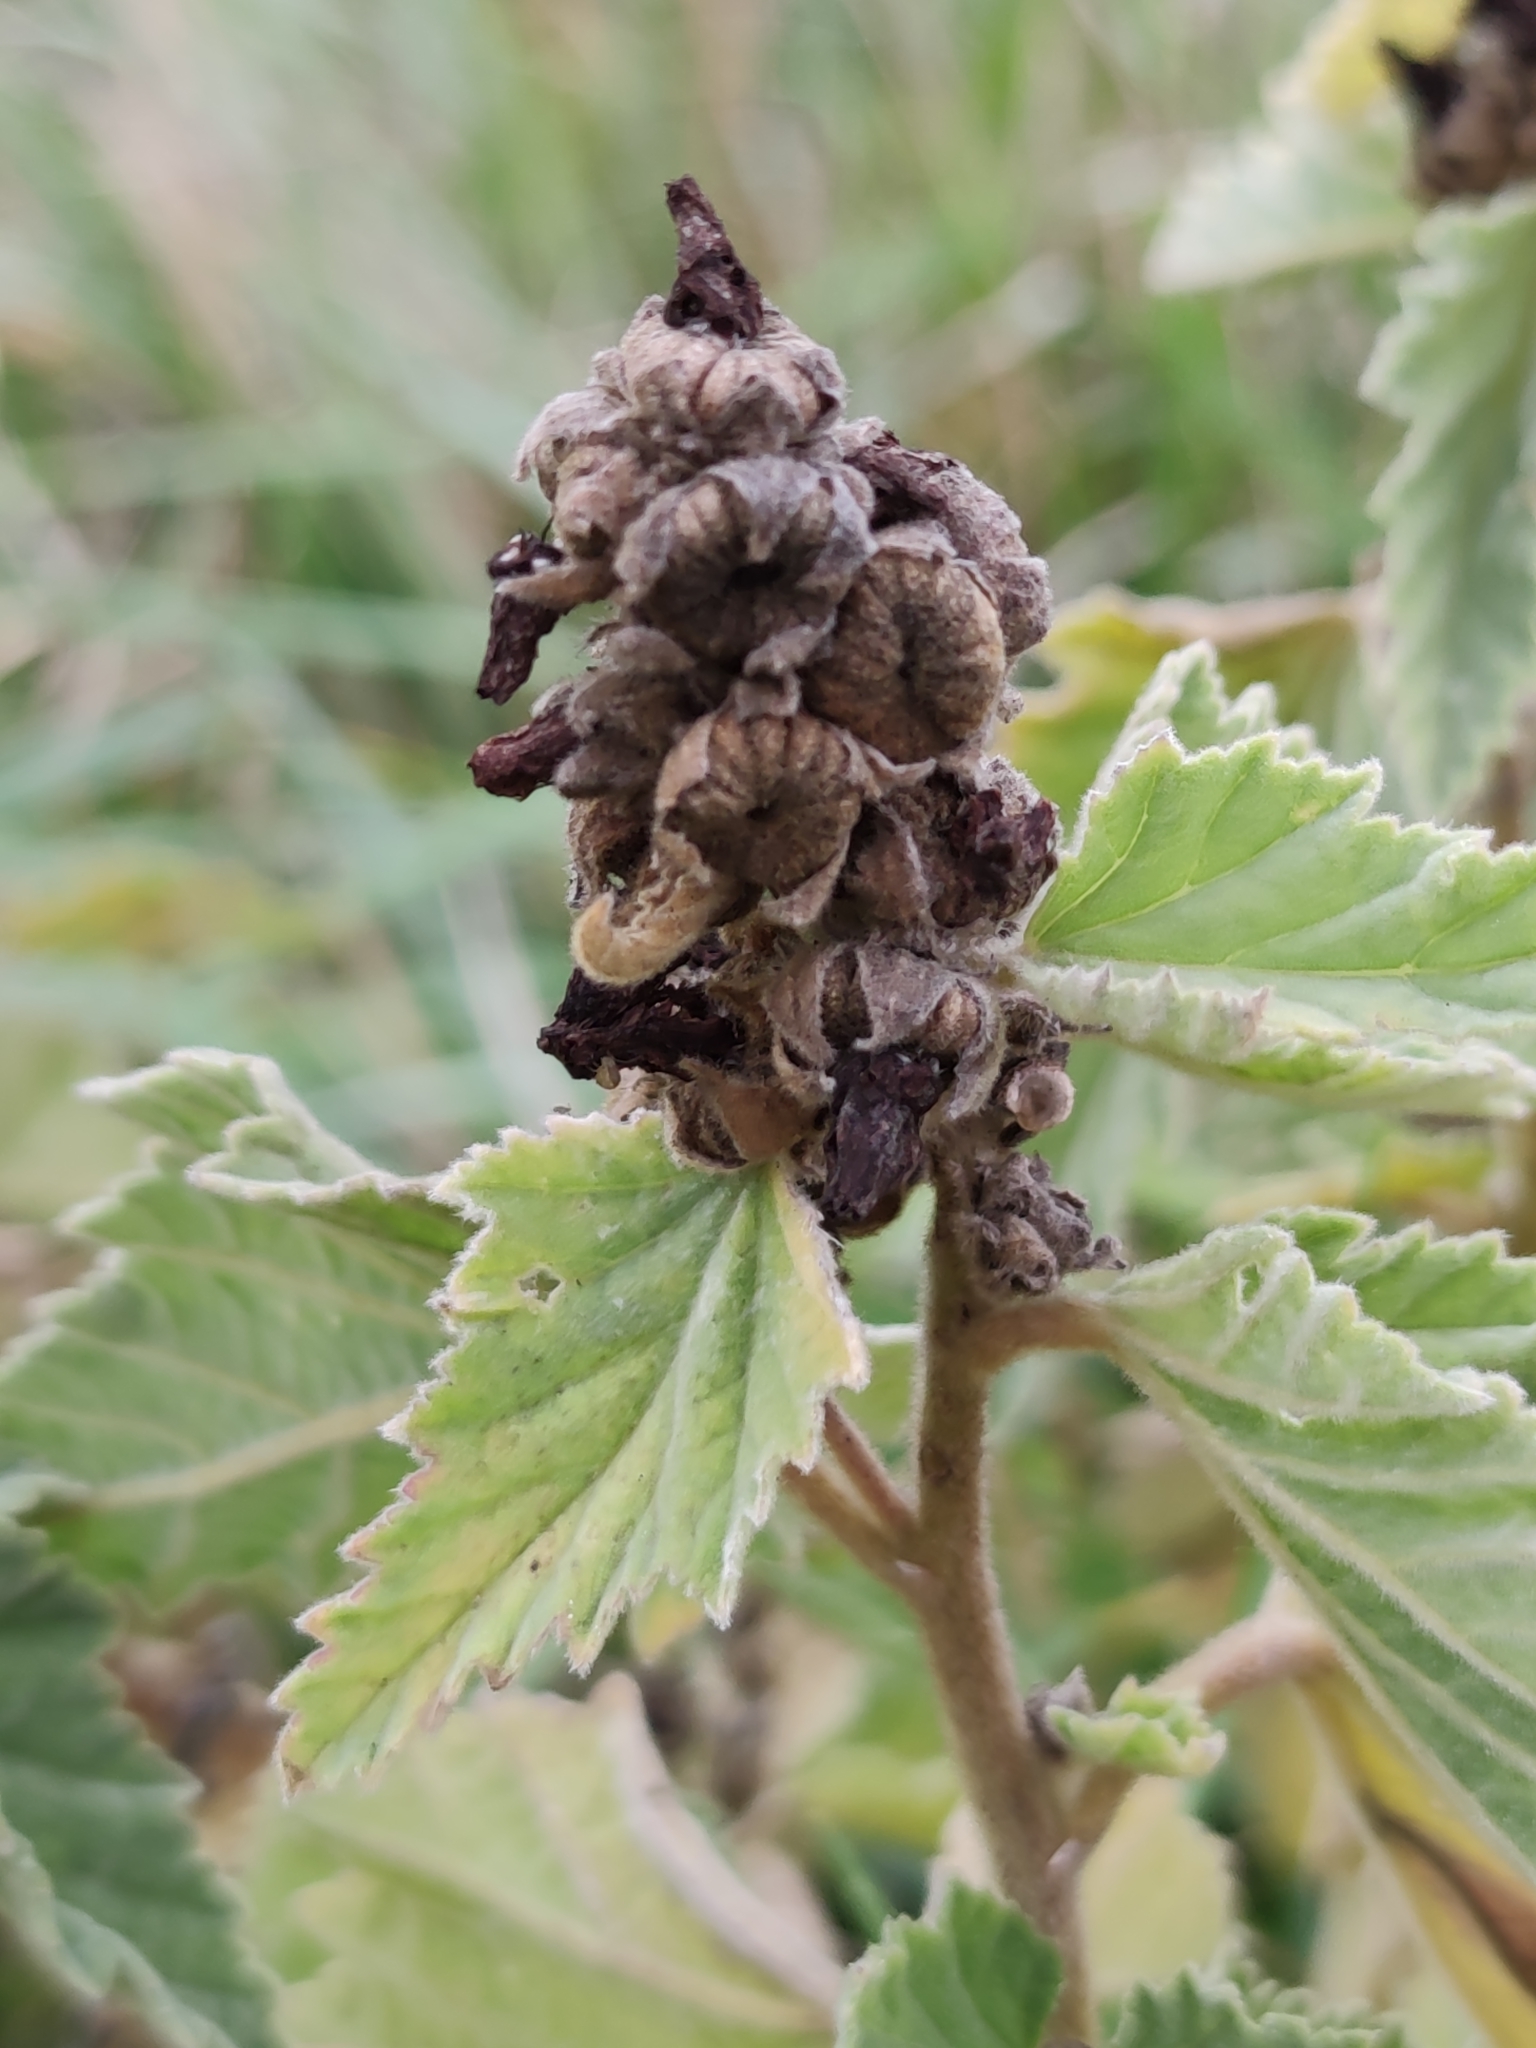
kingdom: Plantae
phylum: Tracheophyta
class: Magnoliopsida
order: Malvales
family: Malvaceae
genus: Althaea
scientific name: Althaea officinalis
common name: Marsh-mallow
